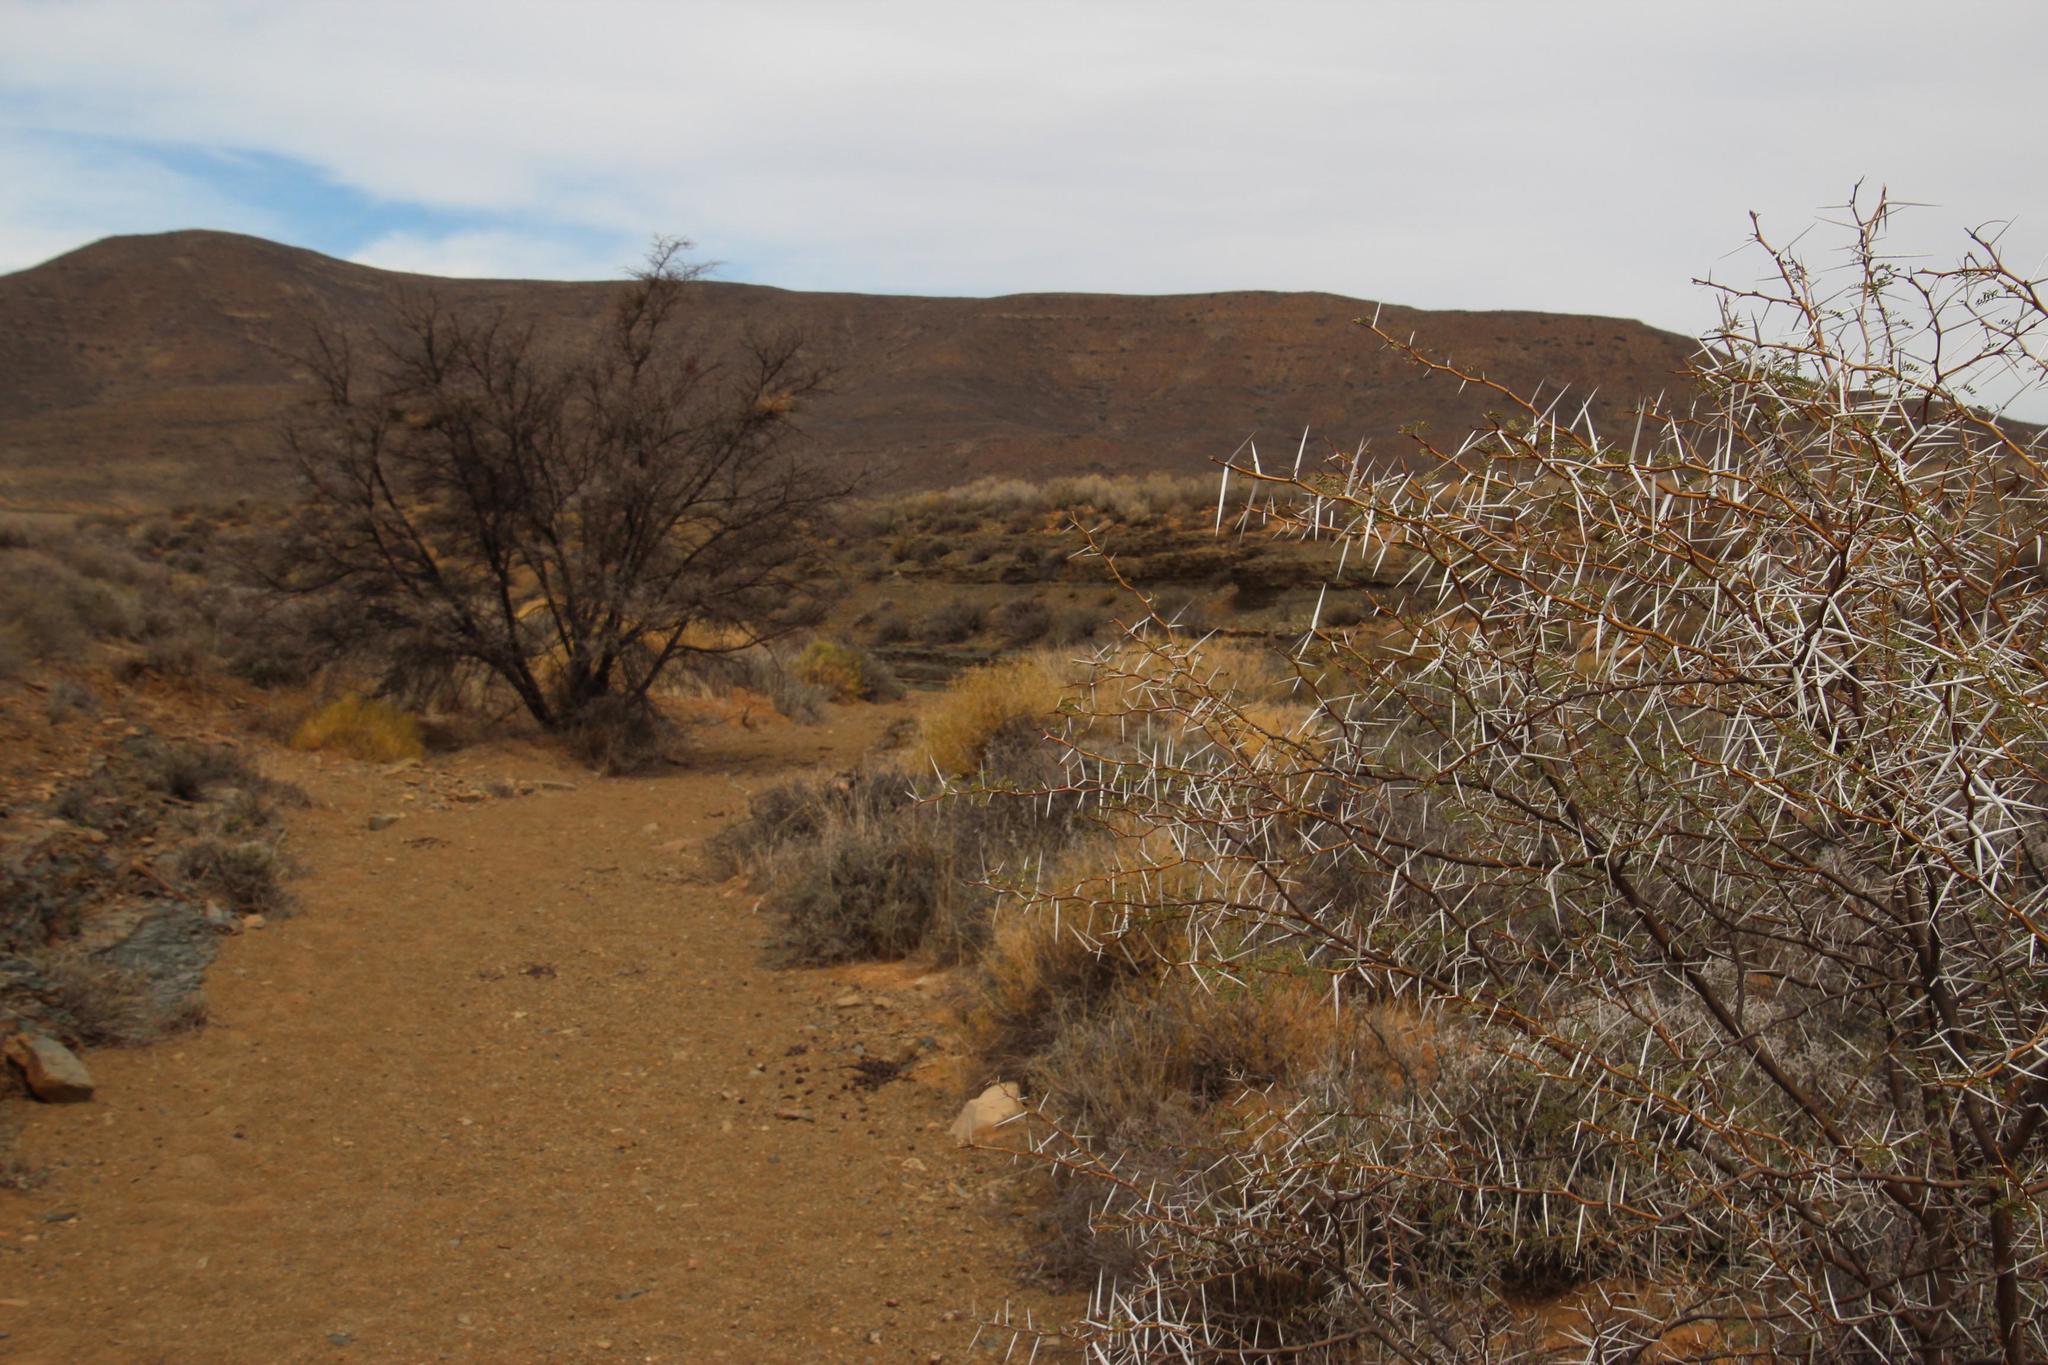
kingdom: Plantae
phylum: Tracheophyta
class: Magnoliopsida
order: Fabales
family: Fabaceae
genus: Vachellia
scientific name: Vachellia karroo
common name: Sweet thorn
